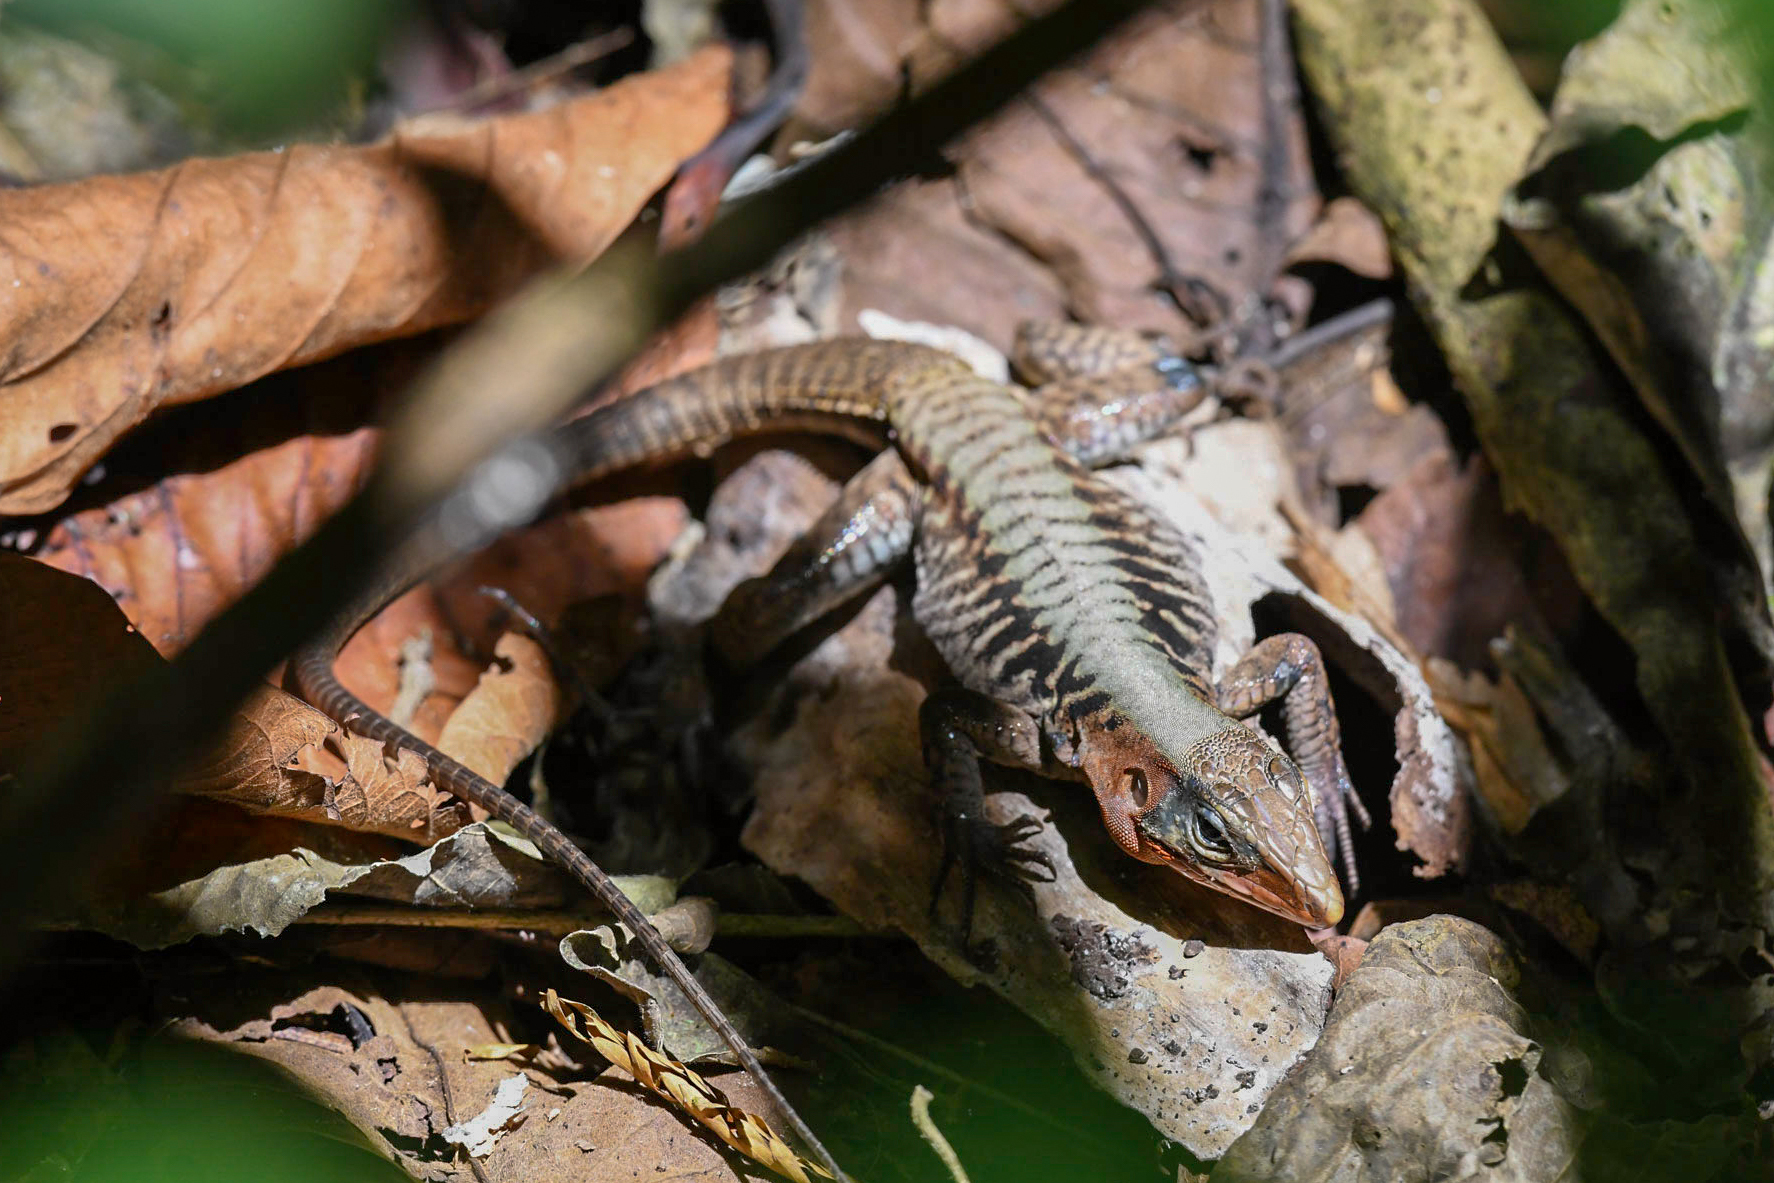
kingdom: Animalia
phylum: Chordata
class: Squamata
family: Teiidae
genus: Holcosus
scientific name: Holcosus leptophrys
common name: Delicate ameiva
